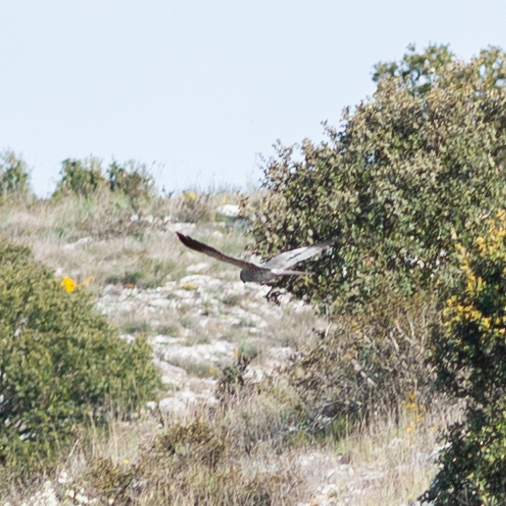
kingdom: Animalia
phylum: Chordata
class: Aves
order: Accipitriformes
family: Accipitridae
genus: Circus
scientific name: Circus pygargus
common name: Montagu's harrier
